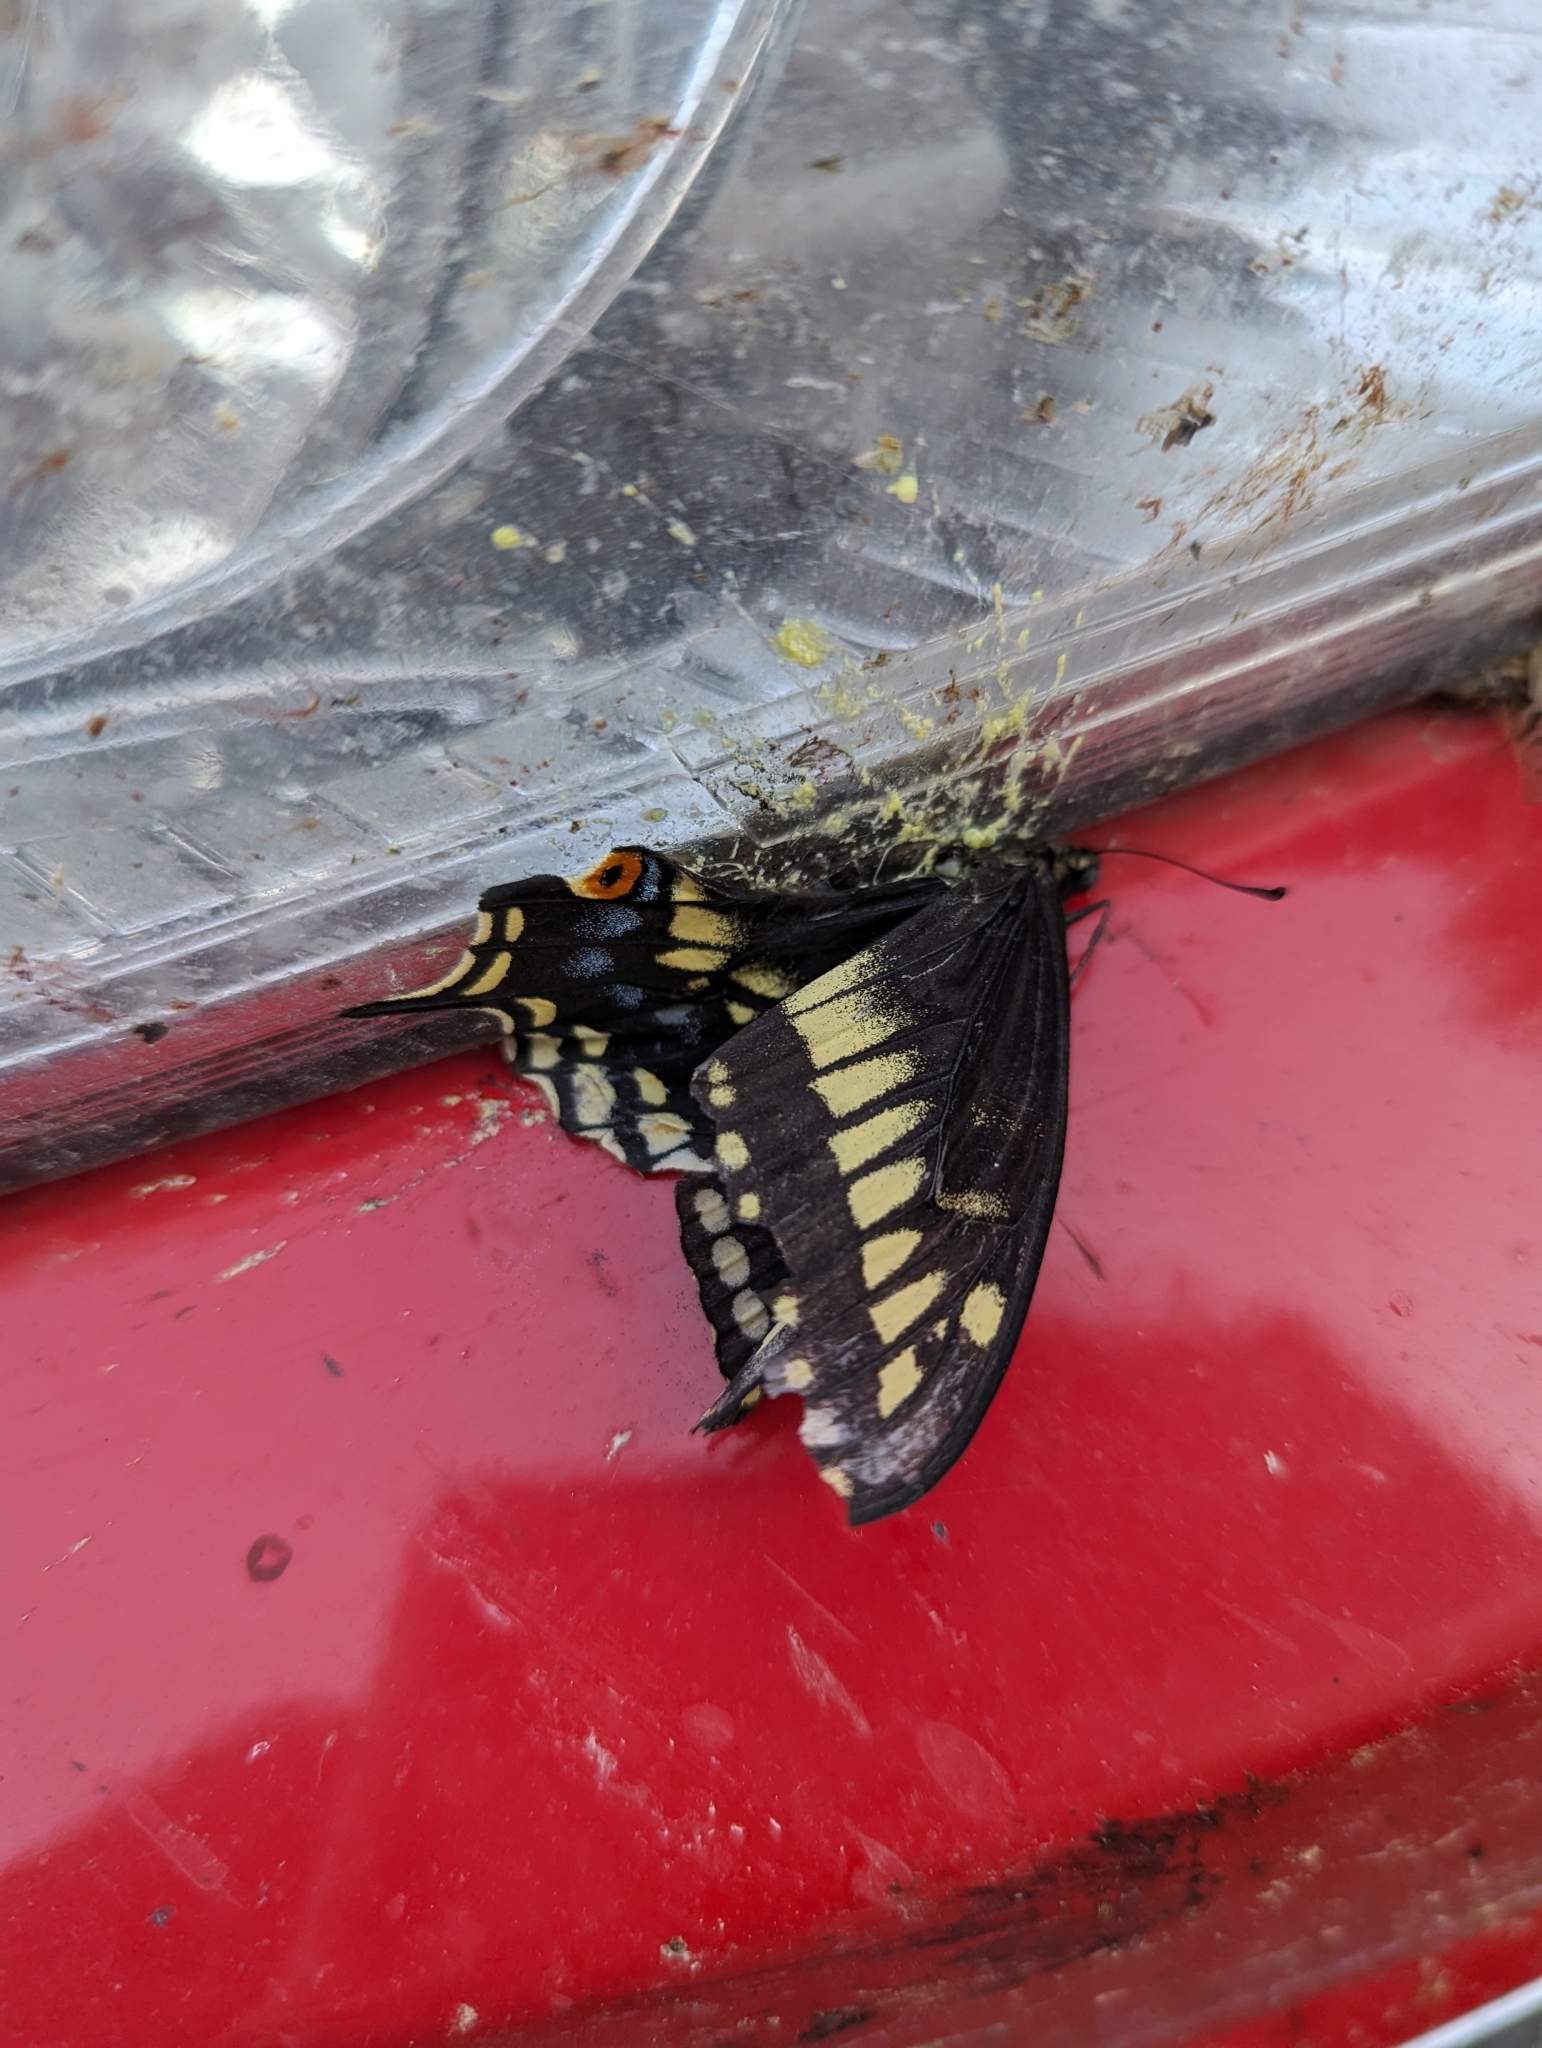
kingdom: Animalia
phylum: Arthropoda
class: Insecta
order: Lepidoptera
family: Papilionidae
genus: Papilio
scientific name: Papilio zelicaon
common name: Anise swallowtail
